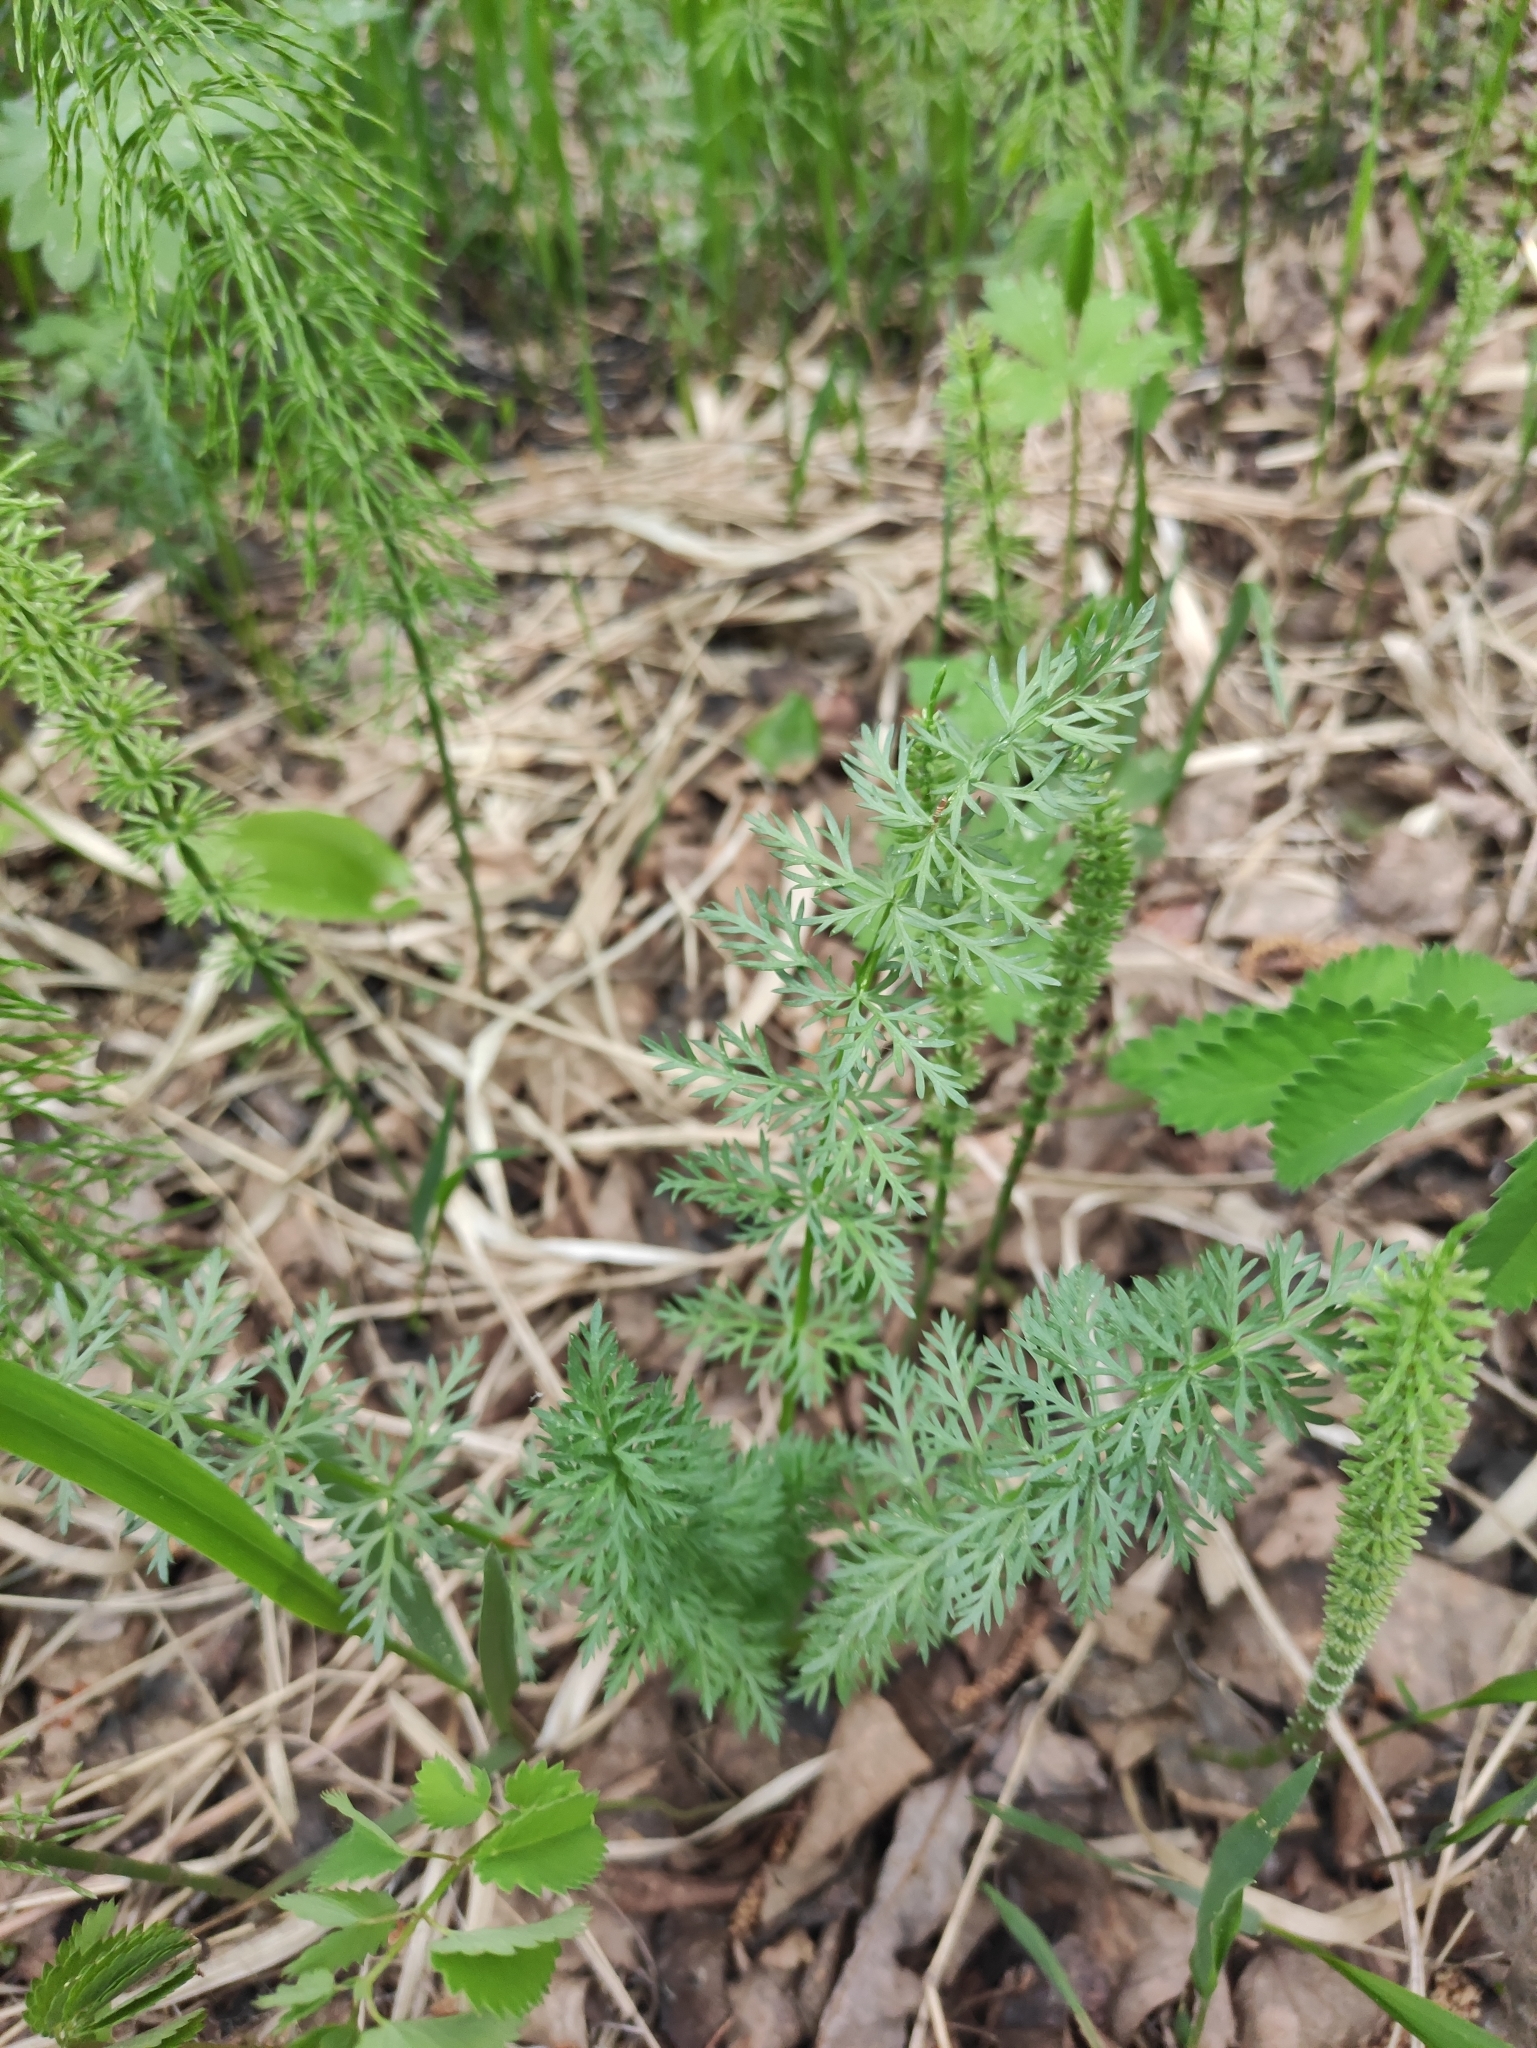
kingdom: Plantae
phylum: Tracheophyta
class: Magnoliopsida
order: Apiales
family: Apiaceae
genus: Carum
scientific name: Carum carvi
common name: Caraway
